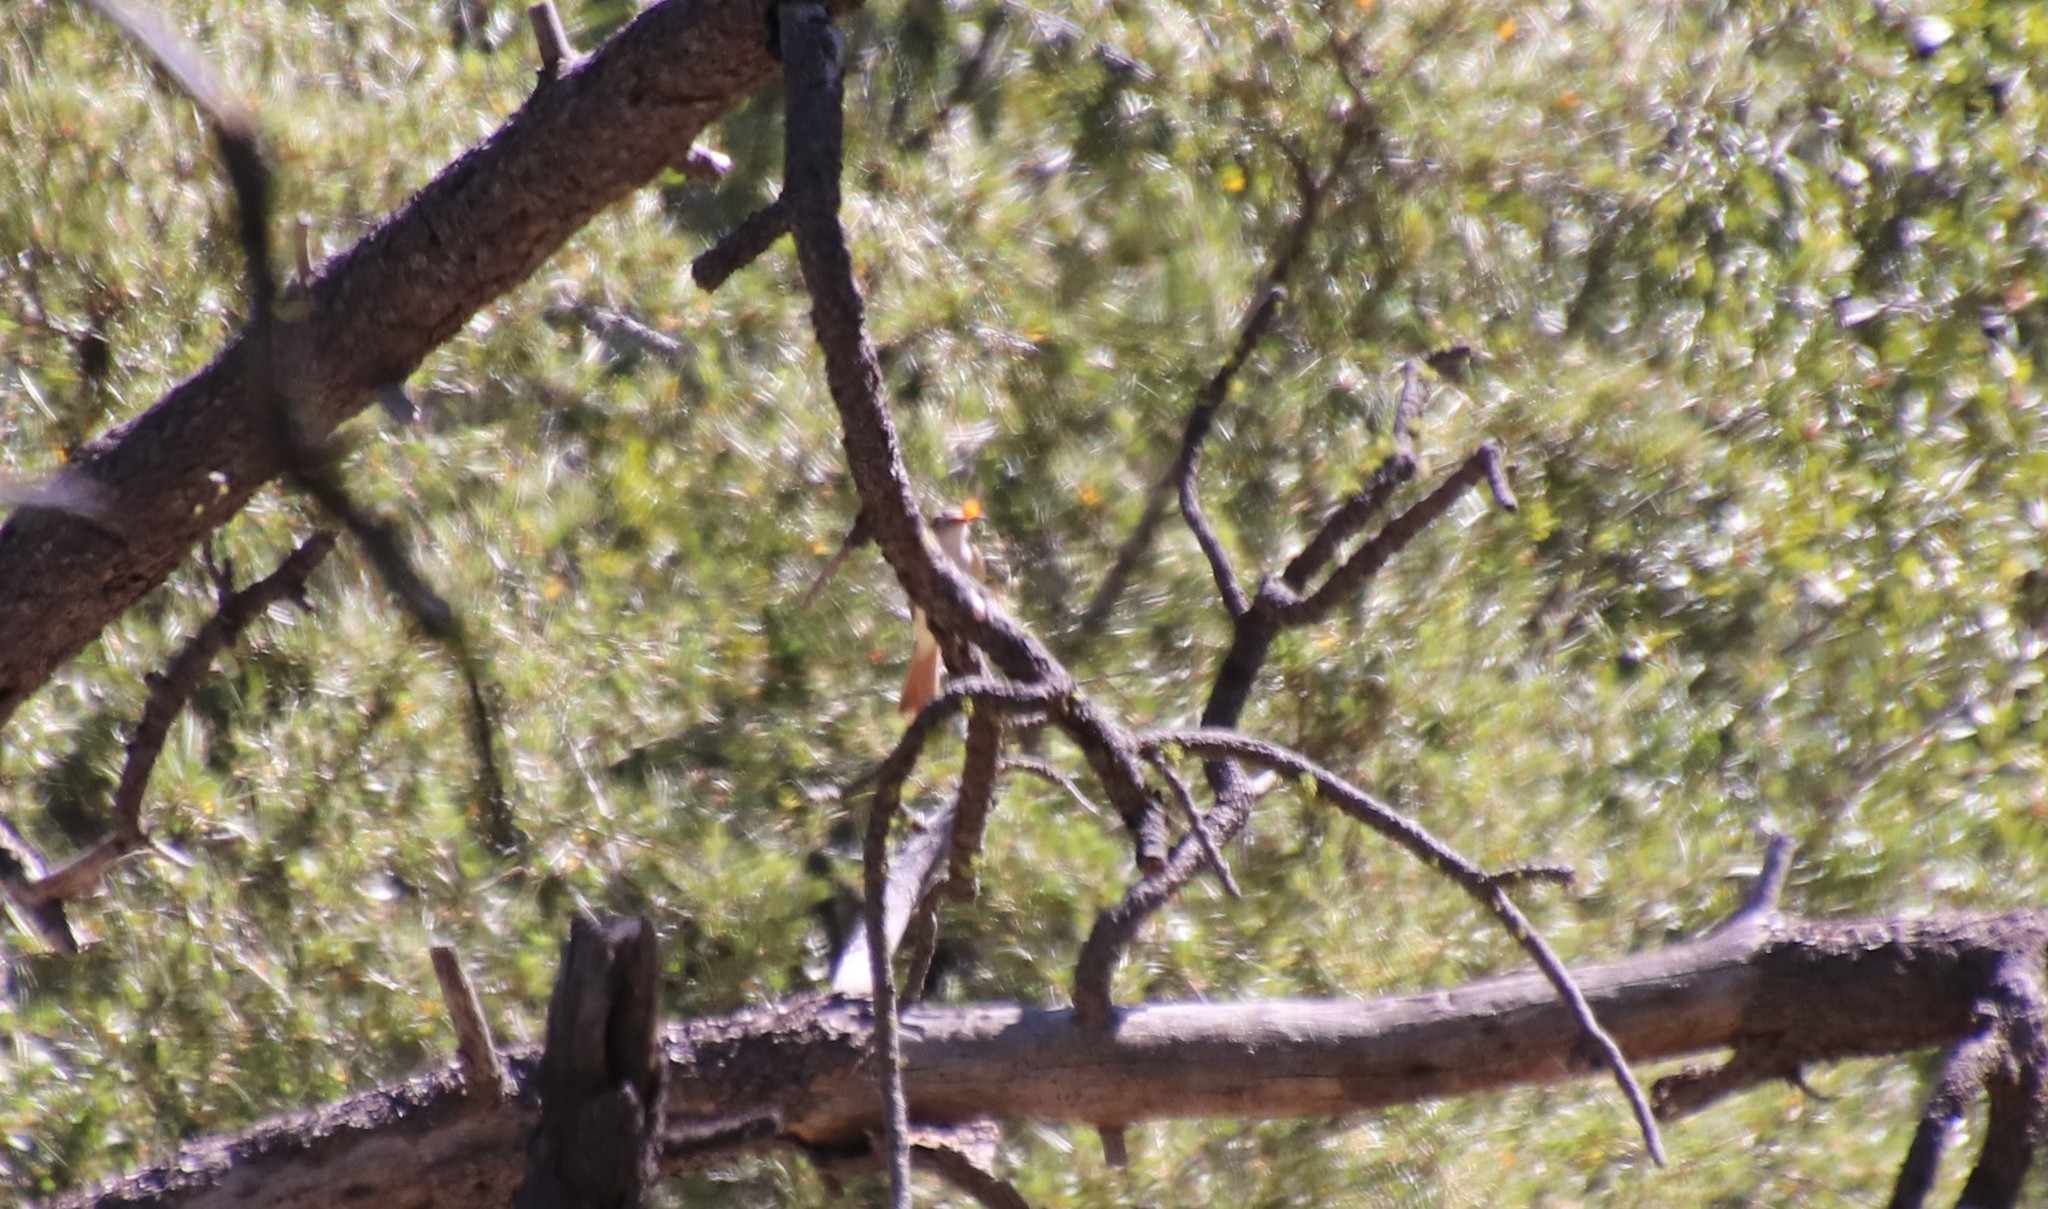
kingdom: Animalia
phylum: Chordata
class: Aves
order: Passeriformes
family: Tyrannidae
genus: Myiarchus
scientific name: Myiarchus cinerascens
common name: Ash-throated flycatcher
